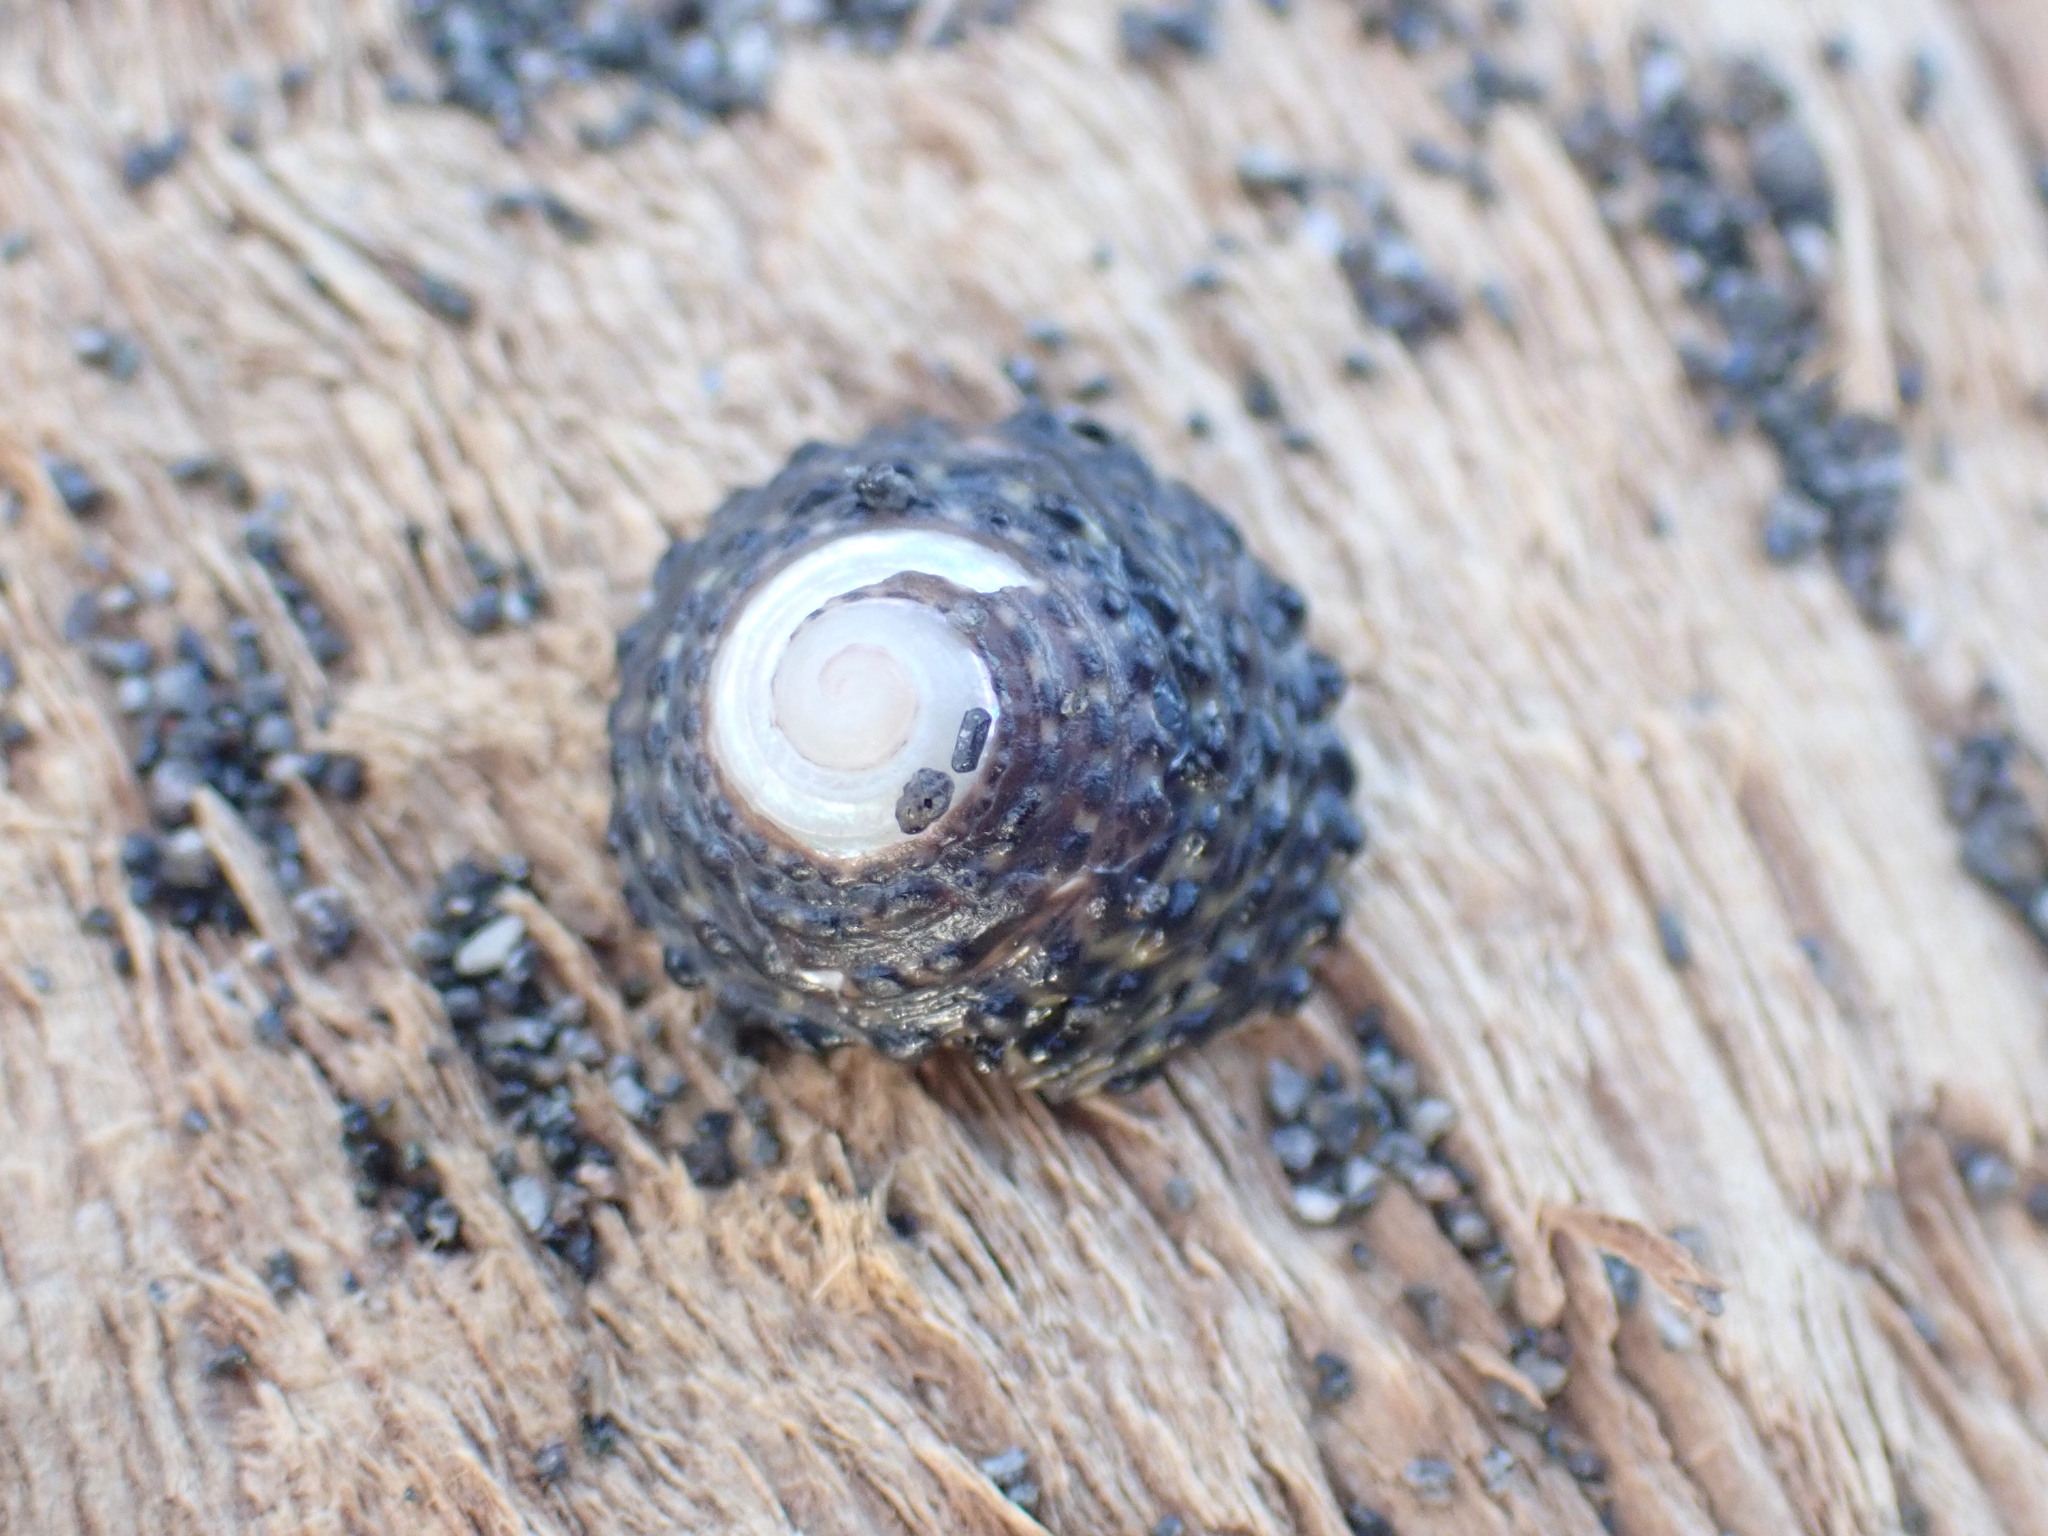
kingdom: Animalia
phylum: Mollusca
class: Gastropoda
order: Trochida
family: Trochidae
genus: Diloma
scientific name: Diloma bicanaliculatum
